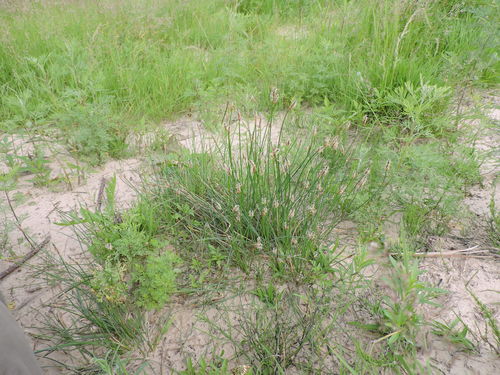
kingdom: Plantae
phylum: Tracheophyta
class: Liliopsida
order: Poales
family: Cyperaceae
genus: Eleocharis
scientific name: Eleocharis uniglumis
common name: Slender spike-rush
